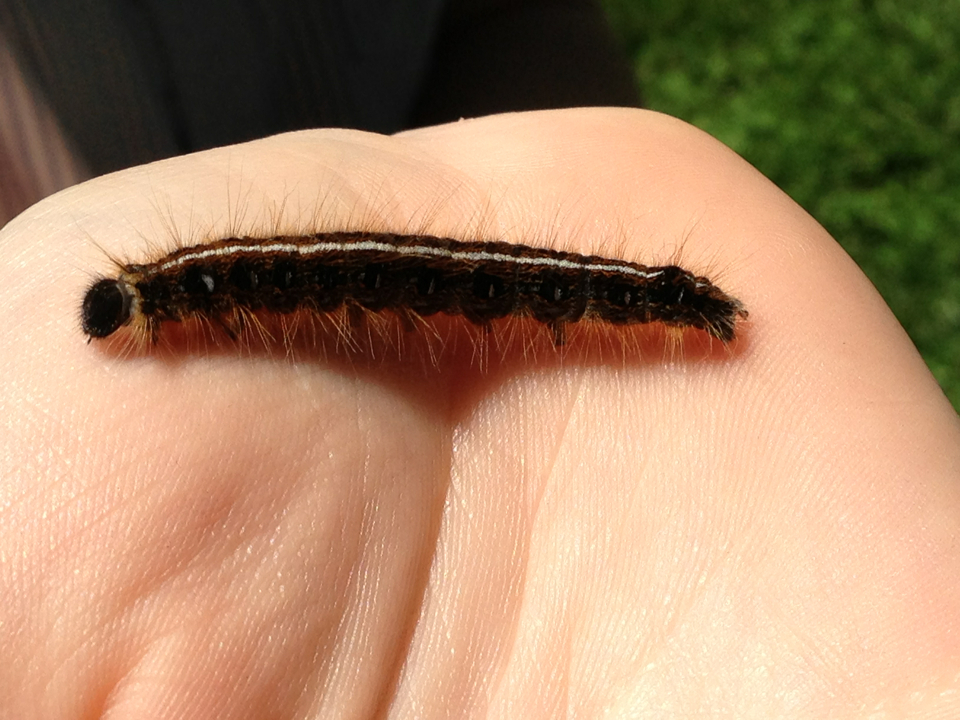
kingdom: Animalia
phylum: Arthropoda
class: Insecta
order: Lepidoptera
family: Lasiocampidae
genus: Malacosoma
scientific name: Malacosoma americana
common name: Eastern tent caterpillar moth
